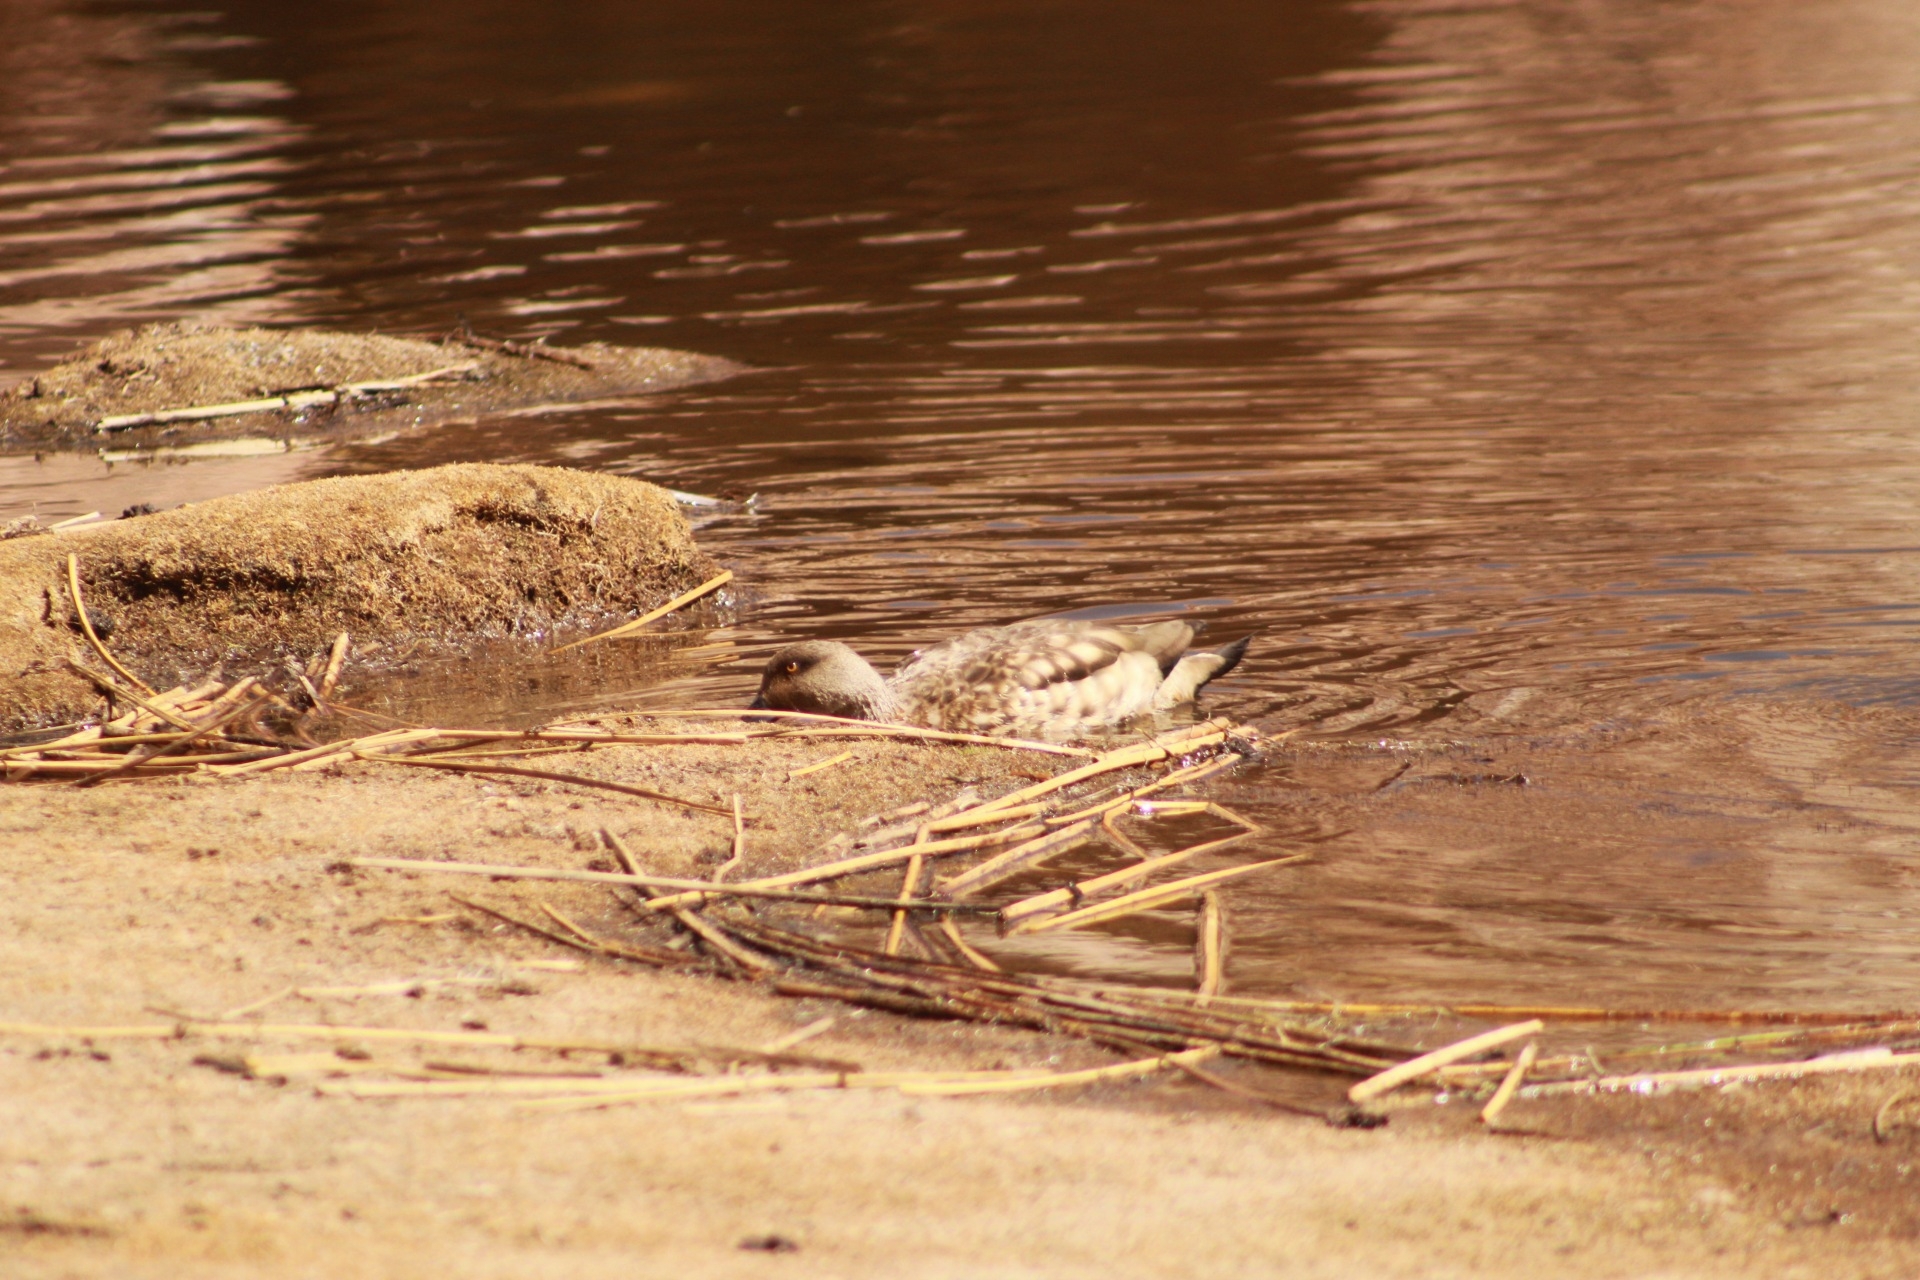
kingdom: Animalia
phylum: Chordata
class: Aves
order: Anseriformes
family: Anatidae
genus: Lophonetta
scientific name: Lophonetta specularioides
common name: Crested duck
